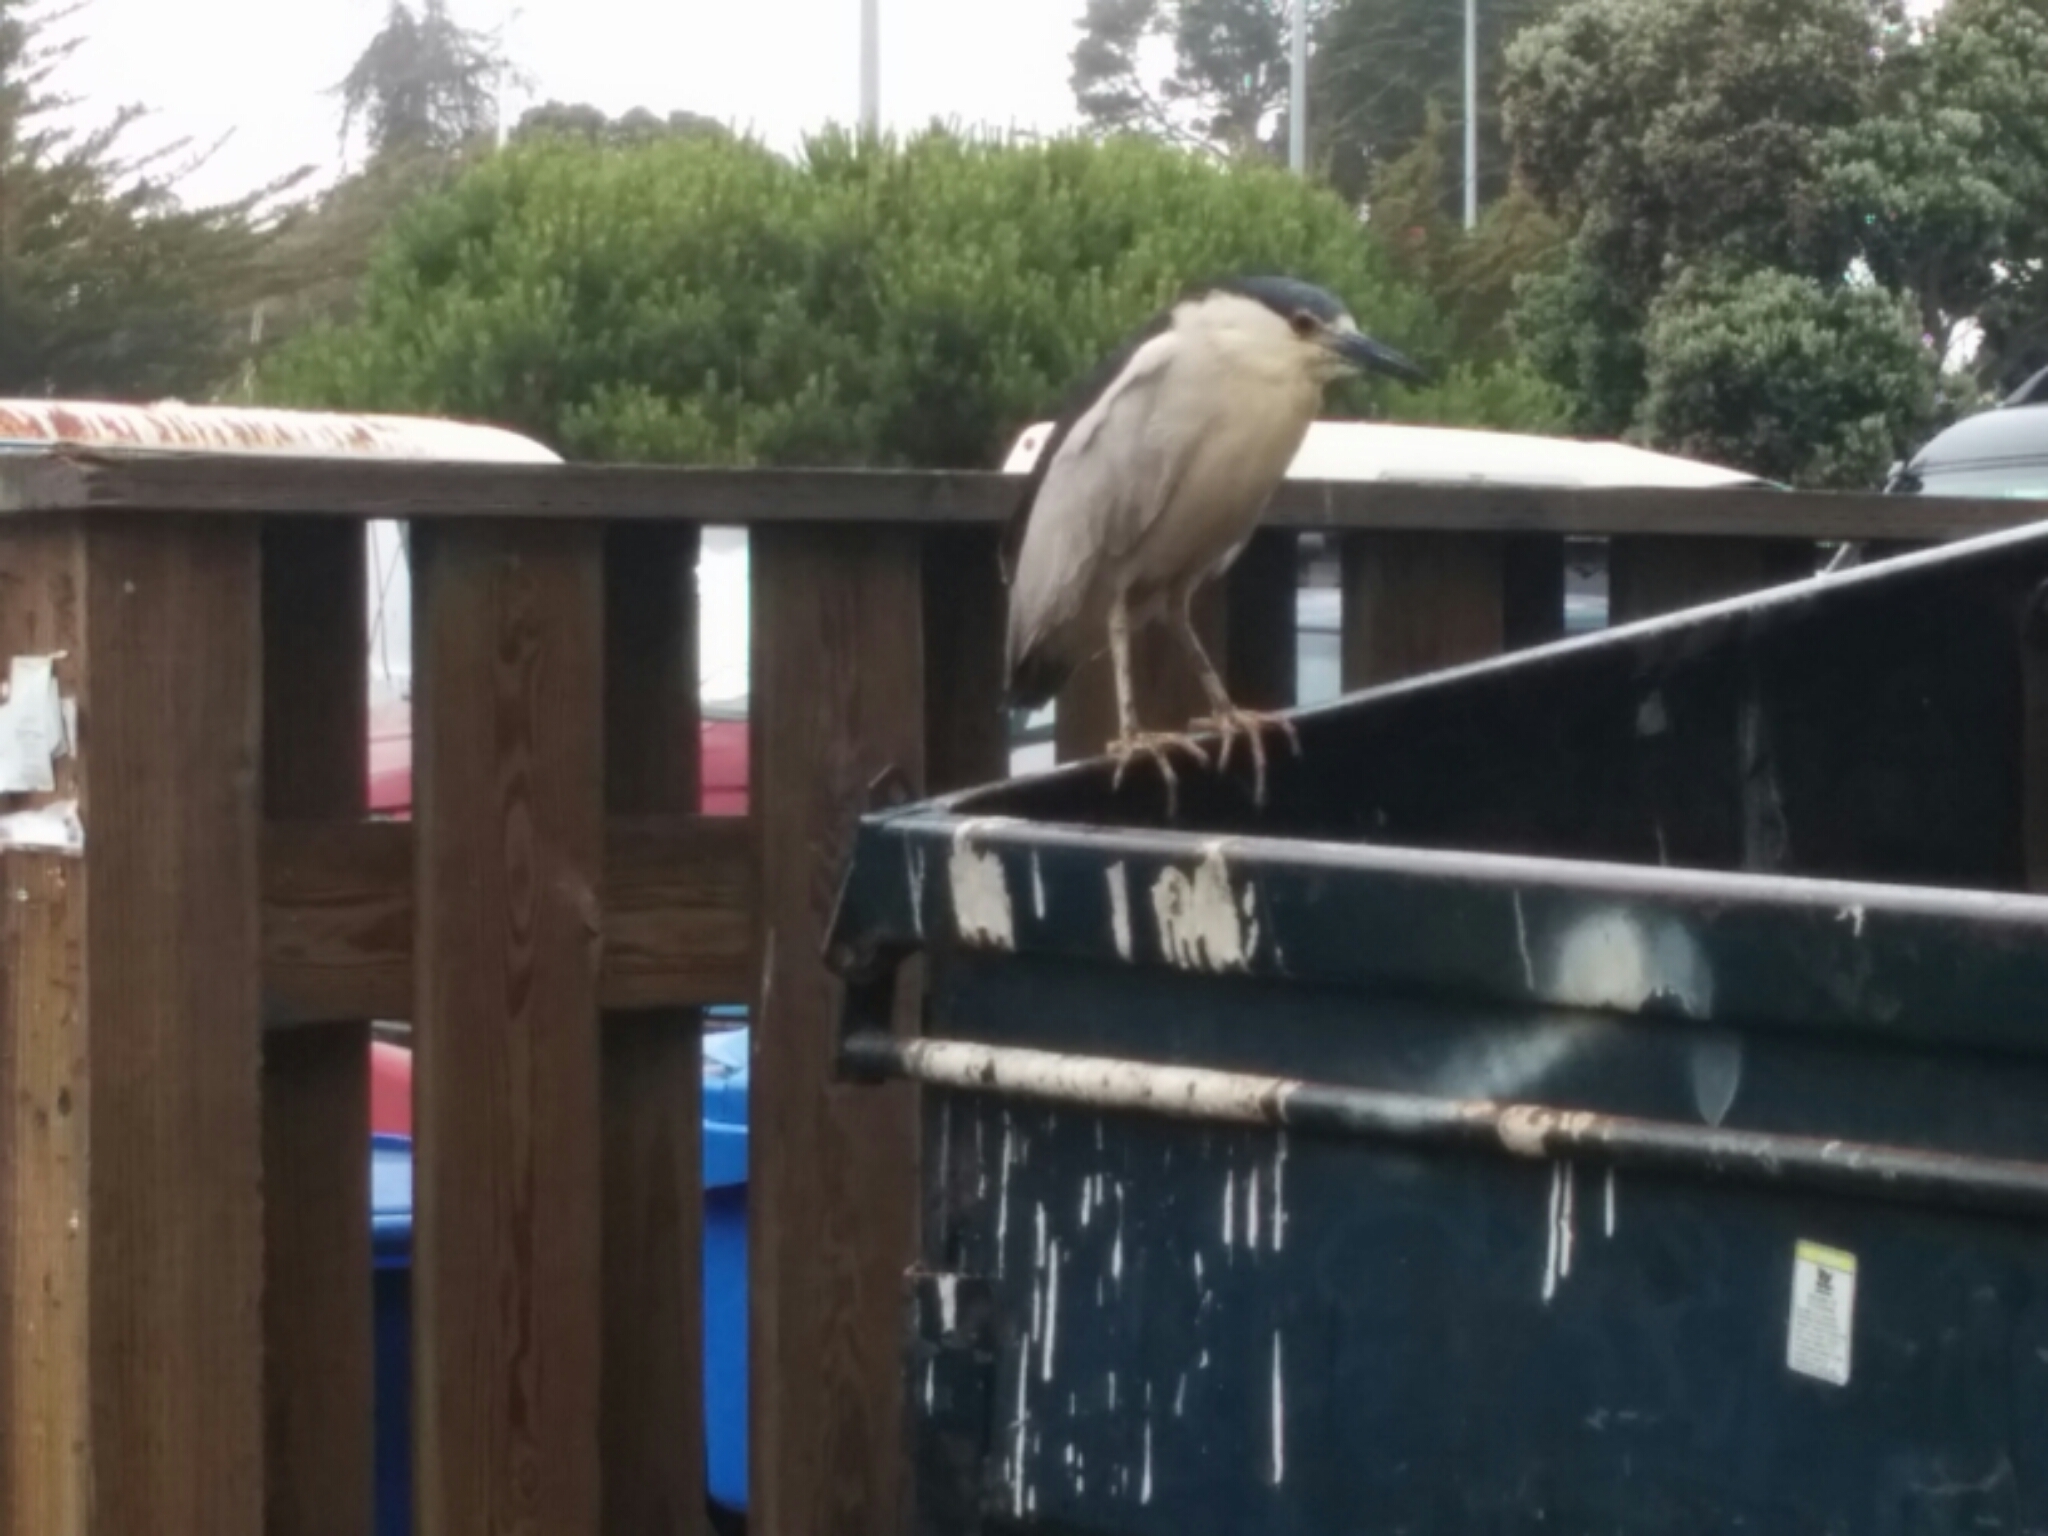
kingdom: Animalia
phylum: Chordata
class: Aves
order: Pelecaniformes
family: Ardeidae
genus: Nycticorax
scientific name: Nycticorax nycticorax
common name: Black-crowned night heron
